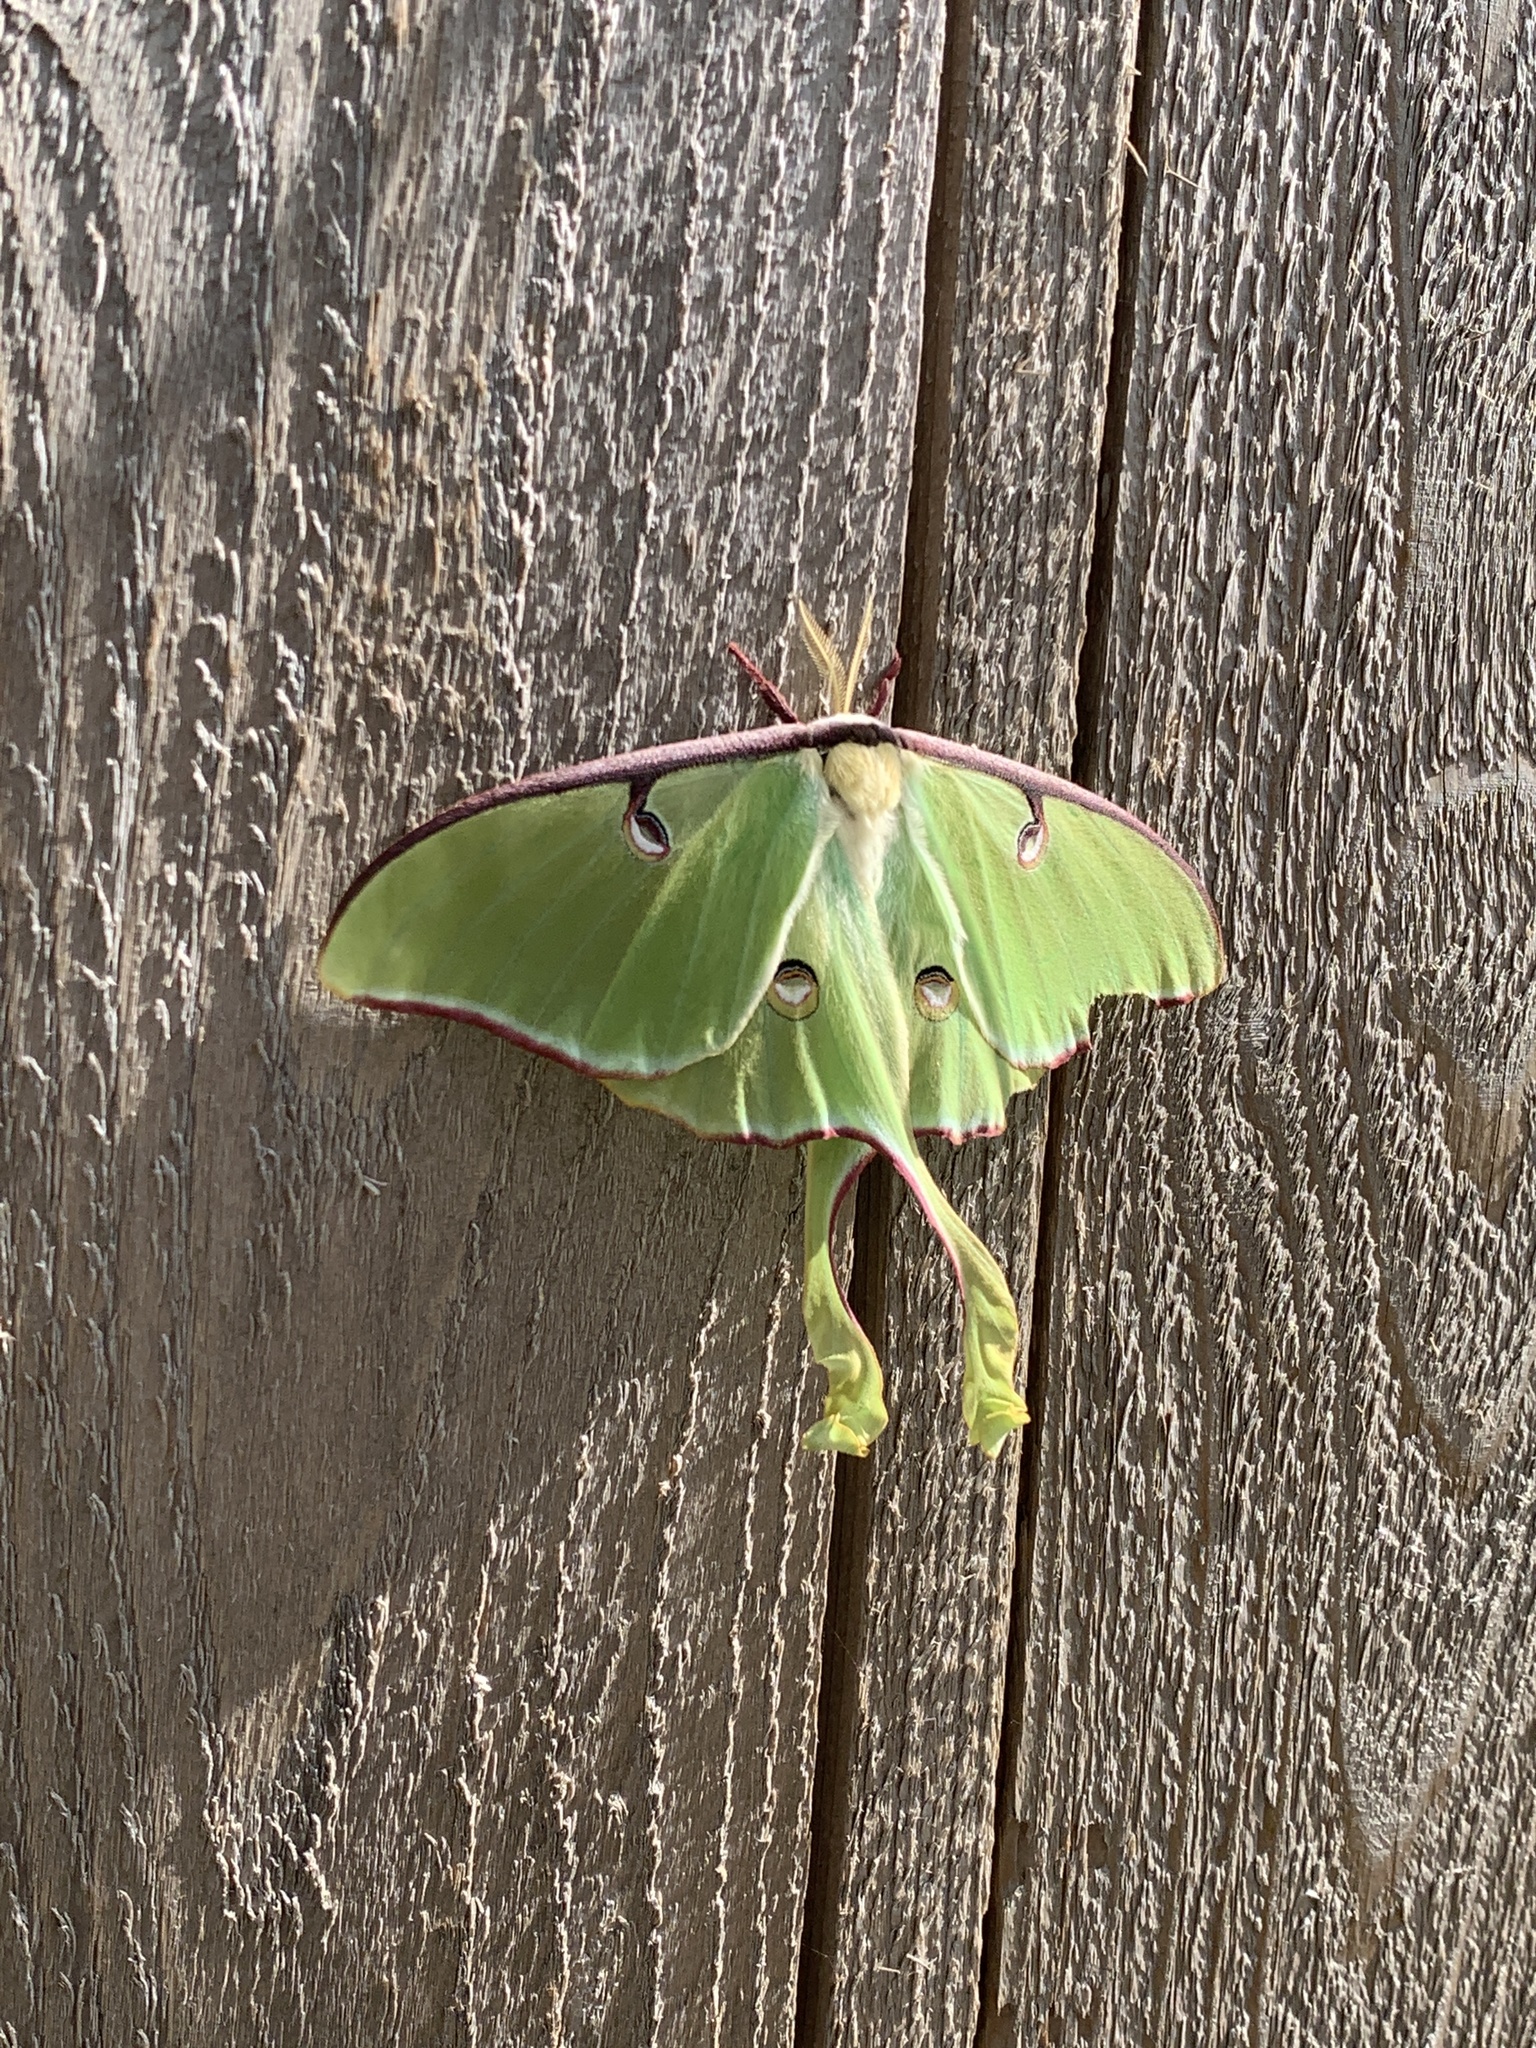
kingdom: Animalia
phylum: Arthropoda
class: Insecta
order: Lepidoptera
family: Saturniidae
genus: Actias
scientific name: Actias luna
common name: Luna moth
